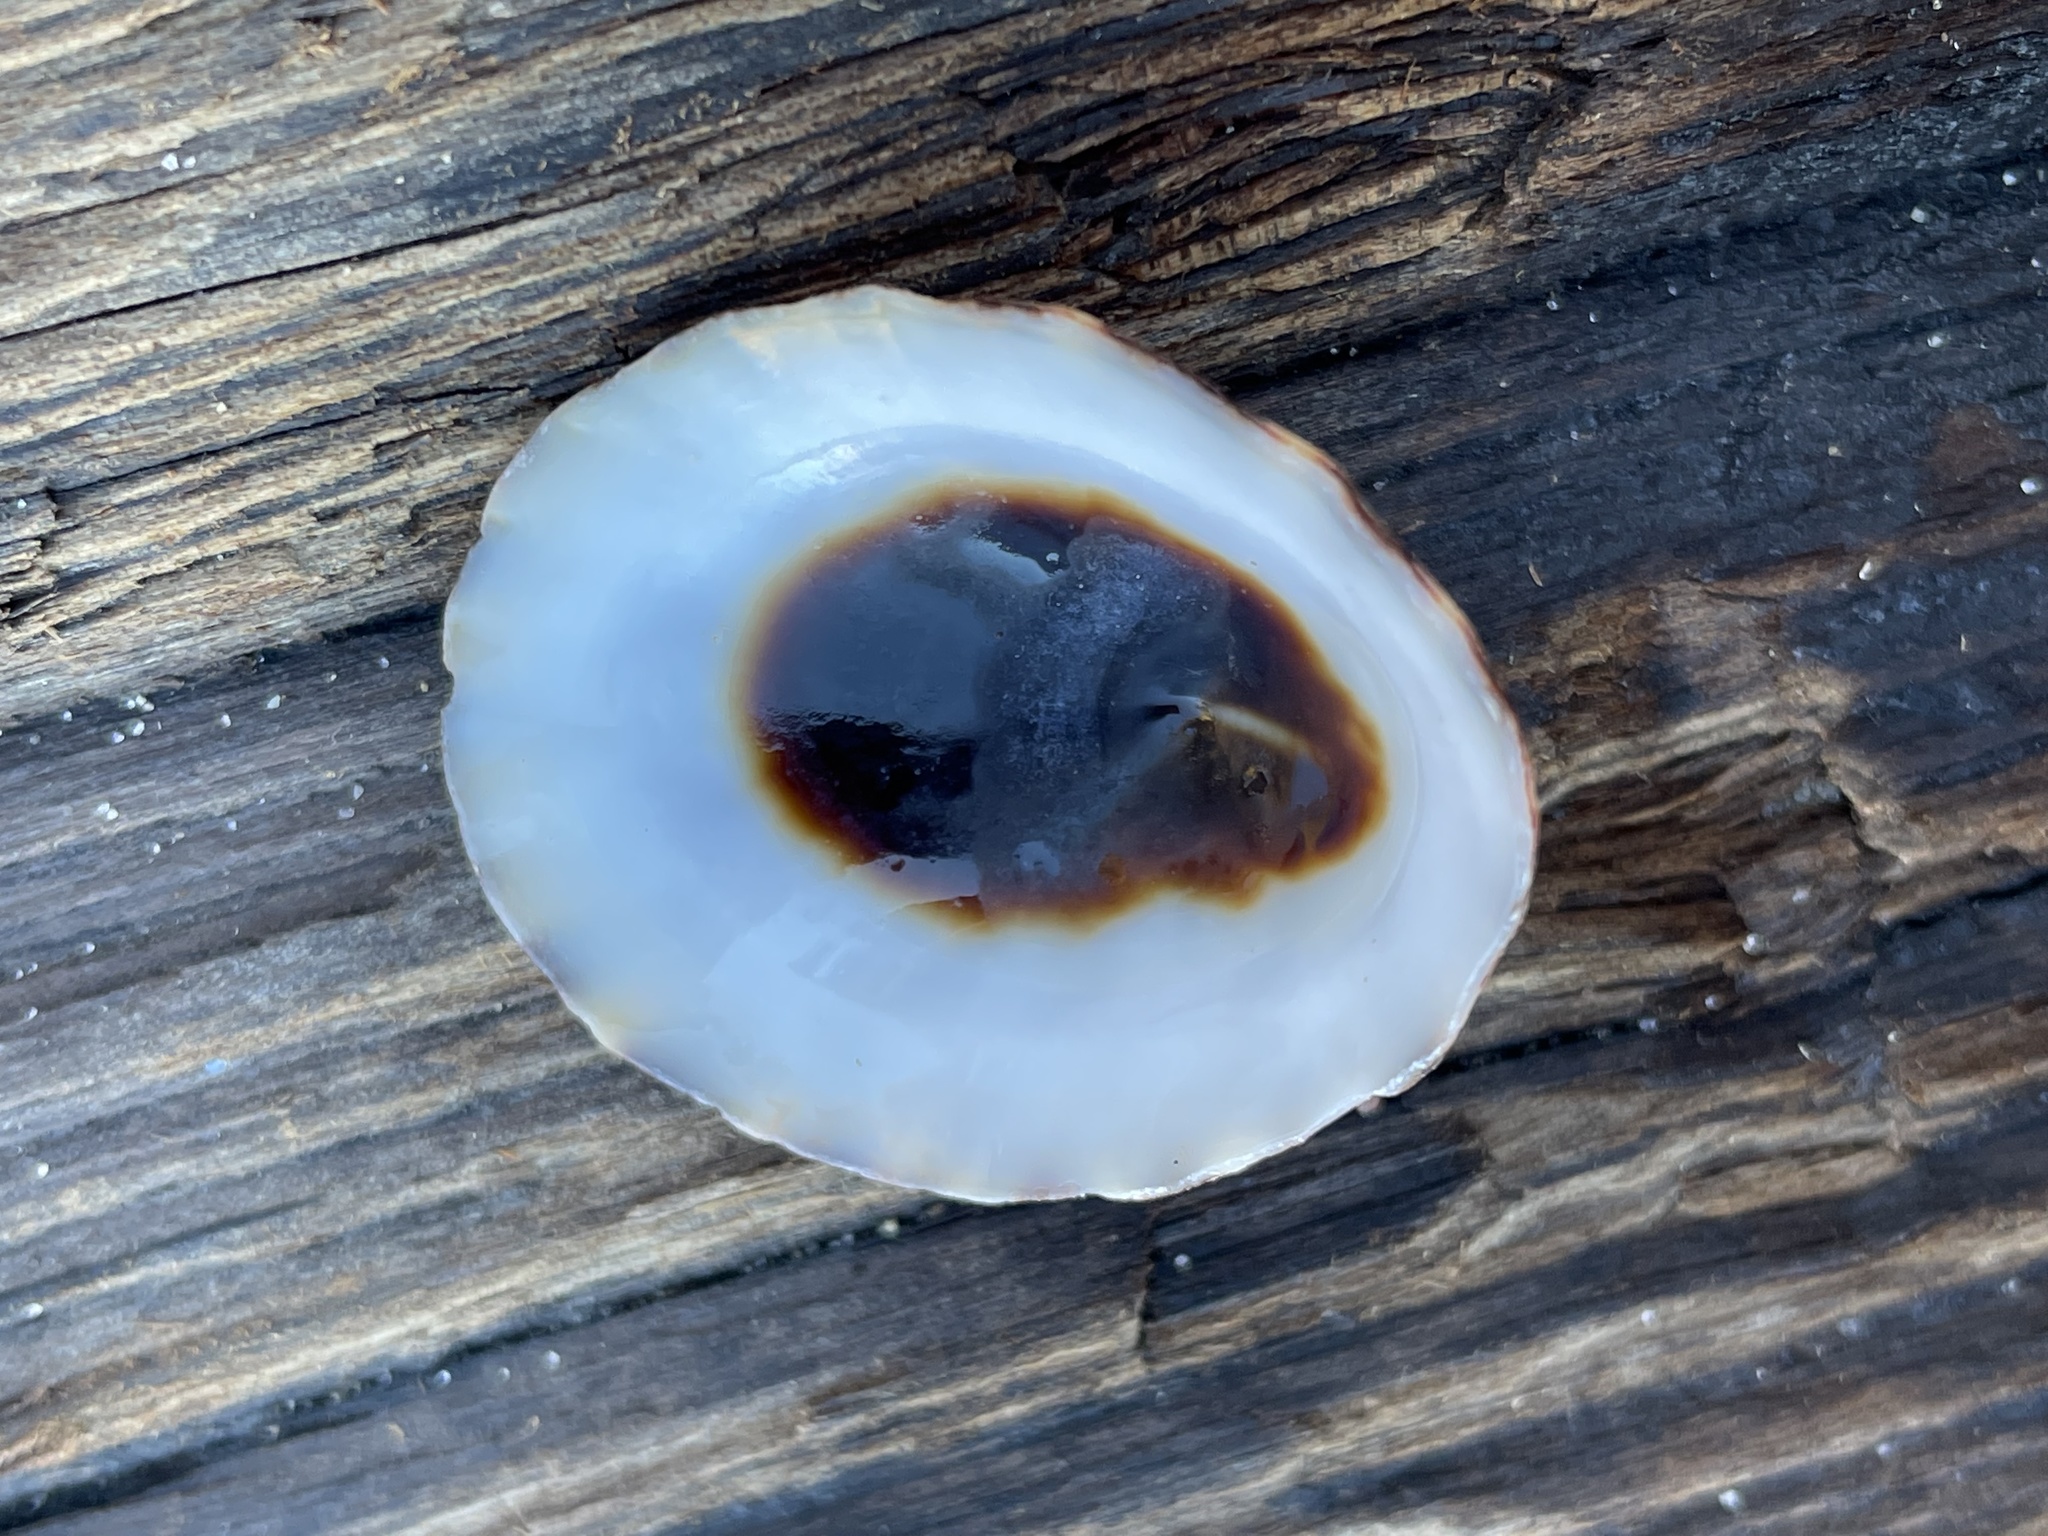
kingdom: Animalia
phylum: Mollusca
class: Gastropoda
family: Lottiidae
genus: Lottia
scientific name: Lottia pelta
